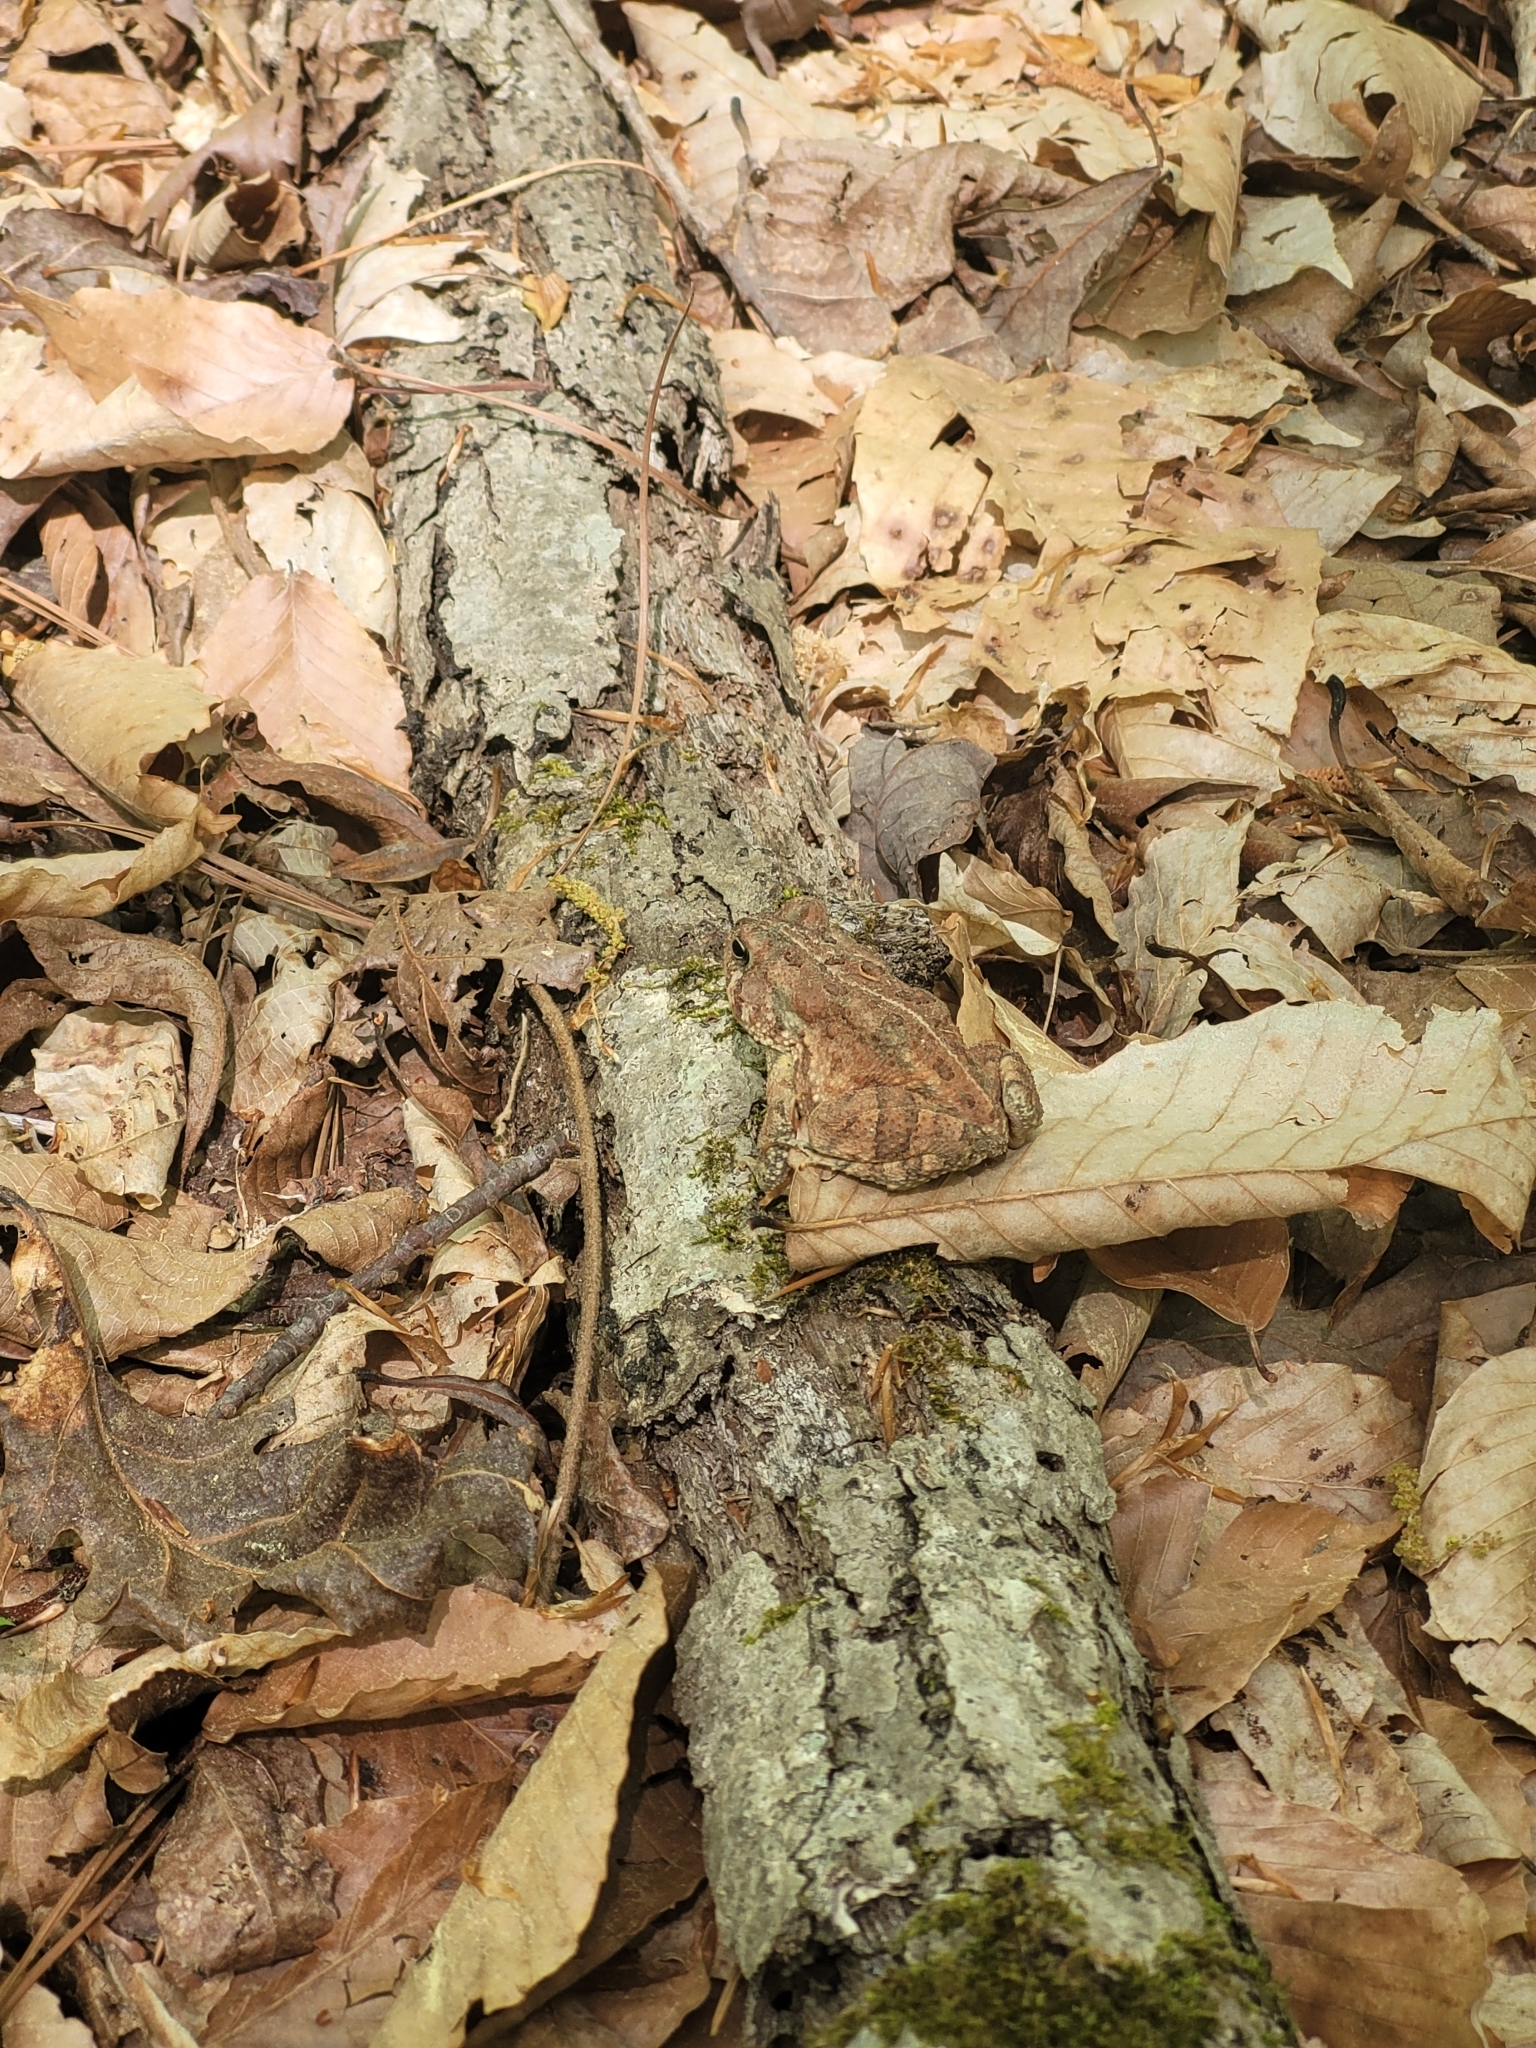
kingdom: Animalia
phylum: Chordata
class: Amphibia
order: Anura
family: Bufonidae
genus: Anaxyrus
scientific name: Anaxyrus fowleri
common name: Fowler's toad
